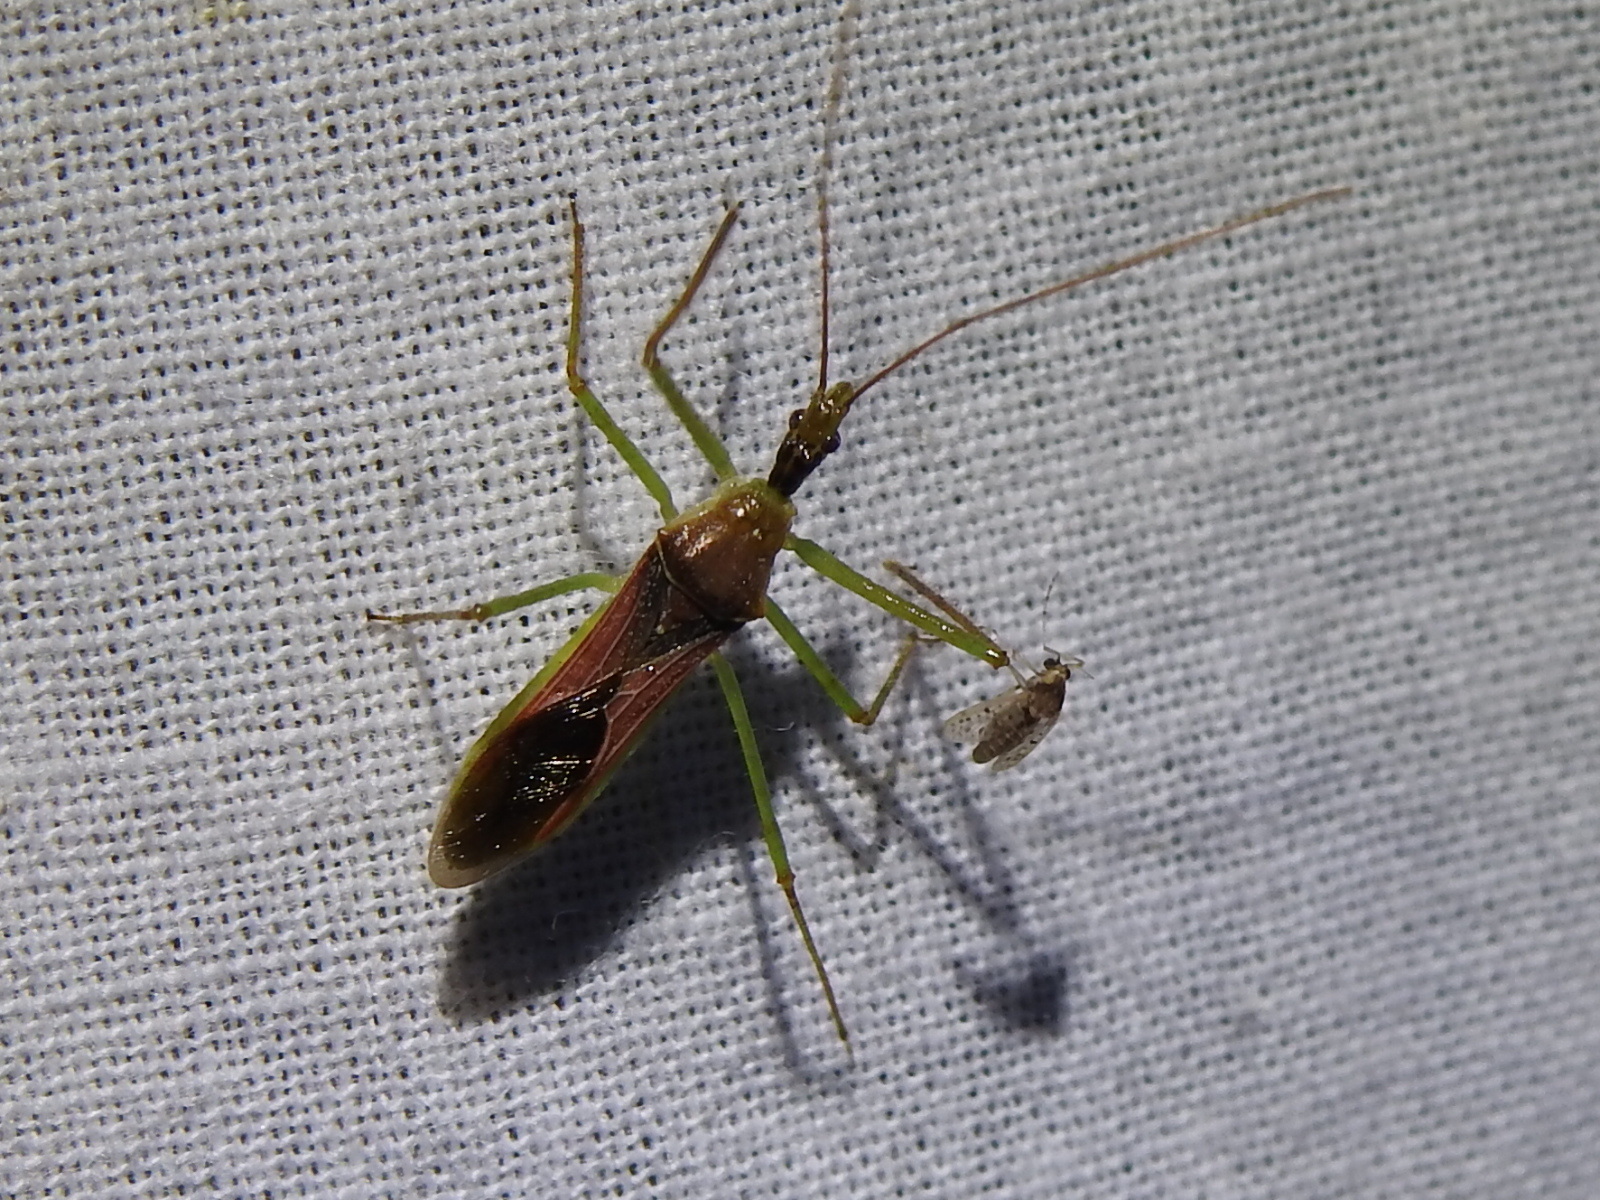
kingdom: Animalia
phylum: Arthropoda
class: Insecta
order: Hemiptera
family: Reduviidae
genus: Zelus
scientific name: Zelus renardii
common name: Assassin bug
